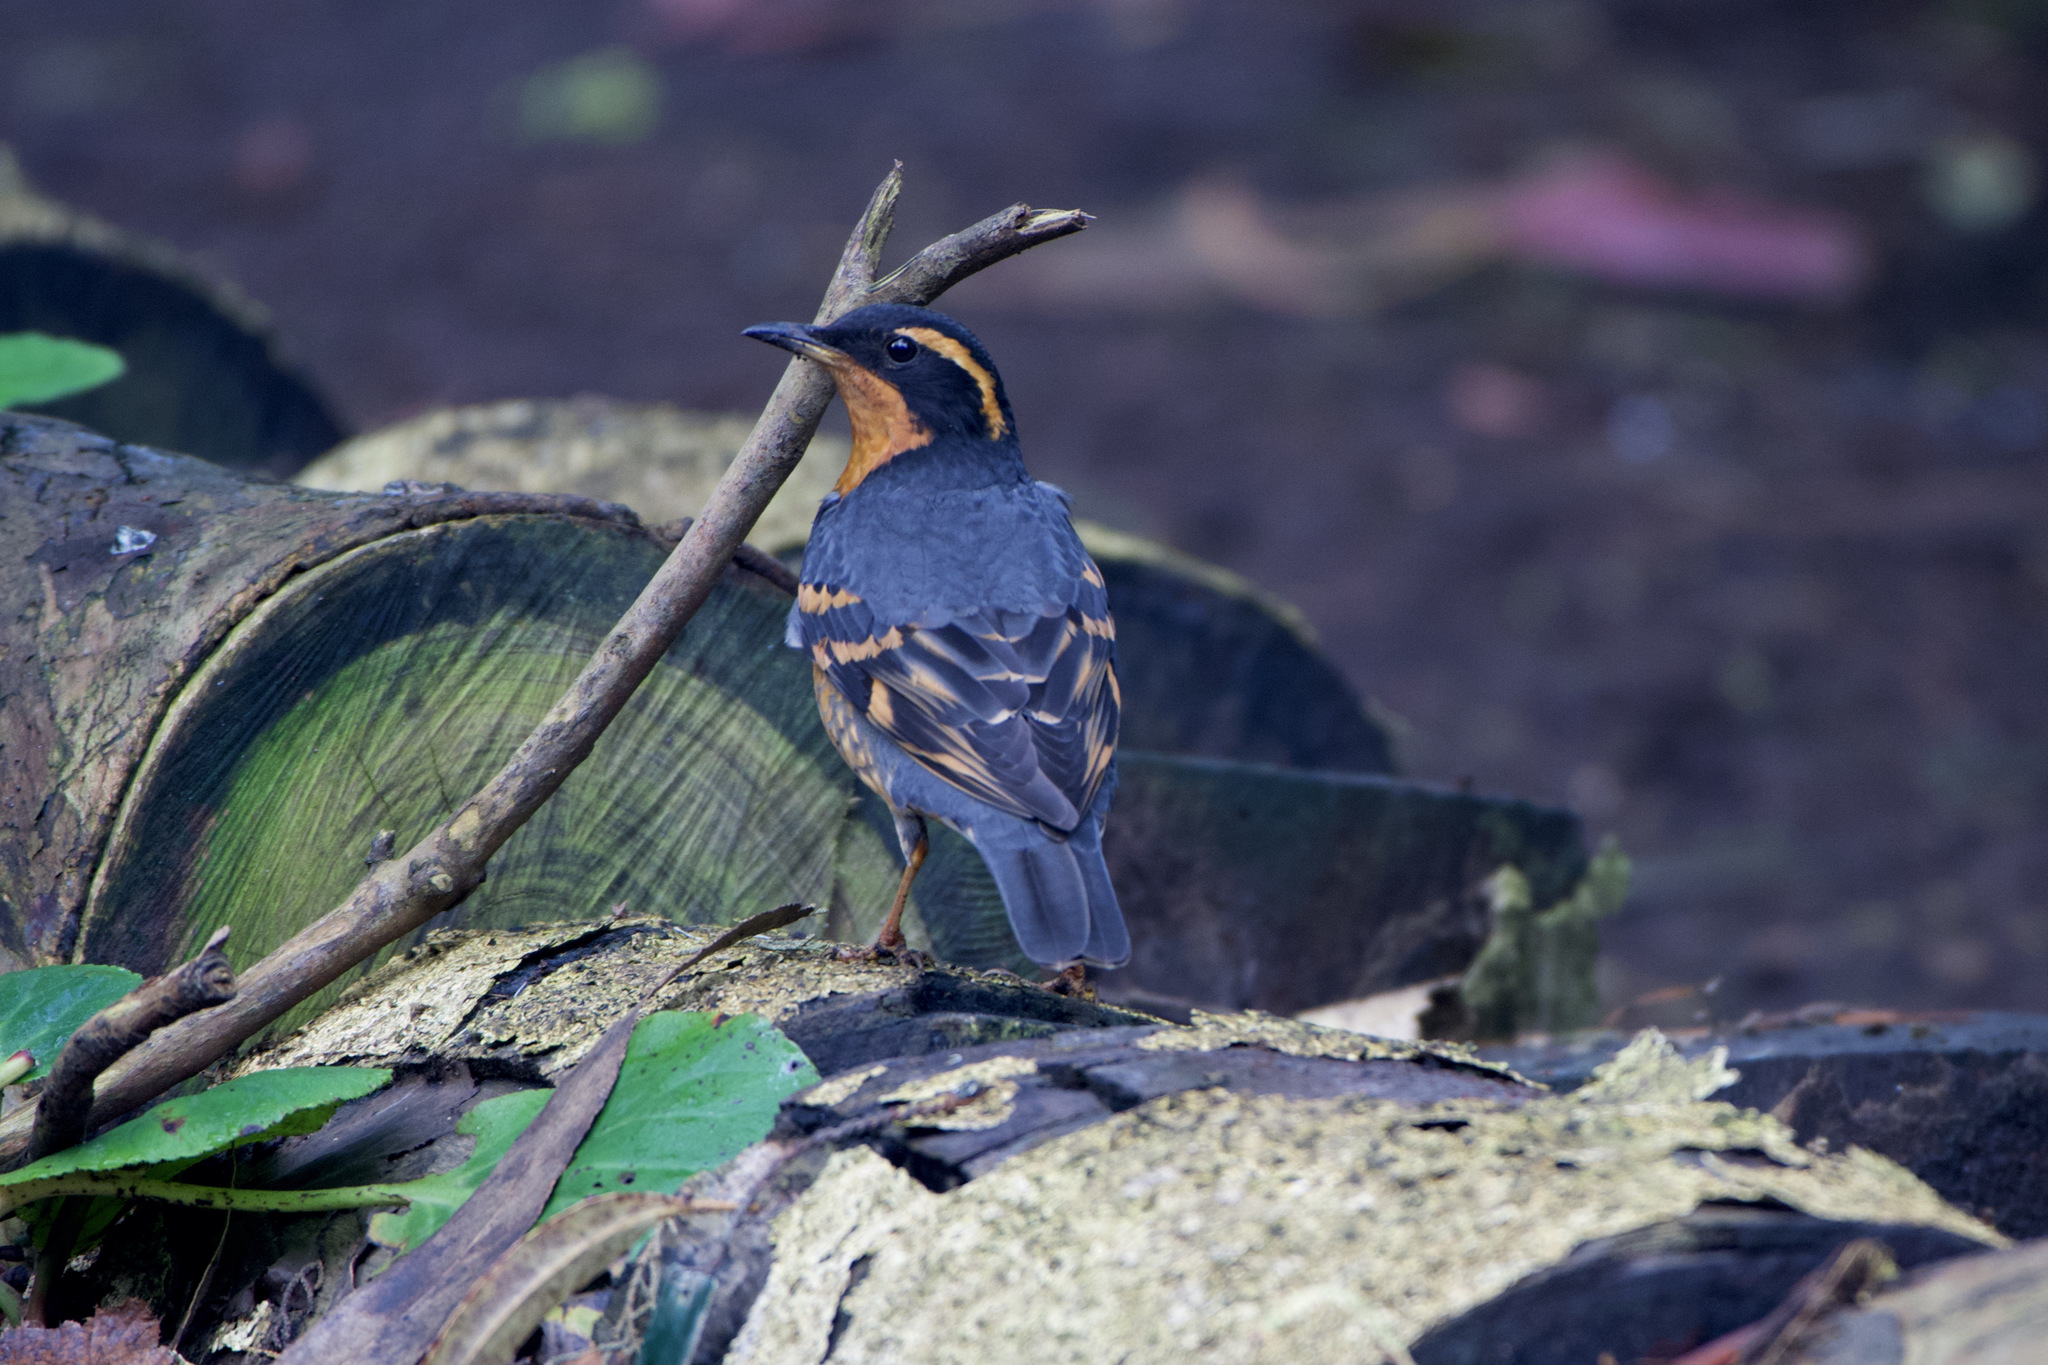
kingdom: Animalia
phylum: Chordata
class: Aves
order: Passeriformes
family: Turdidae
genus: Ixoreus
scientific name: Ixoreus naevius
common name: Varied thrush
